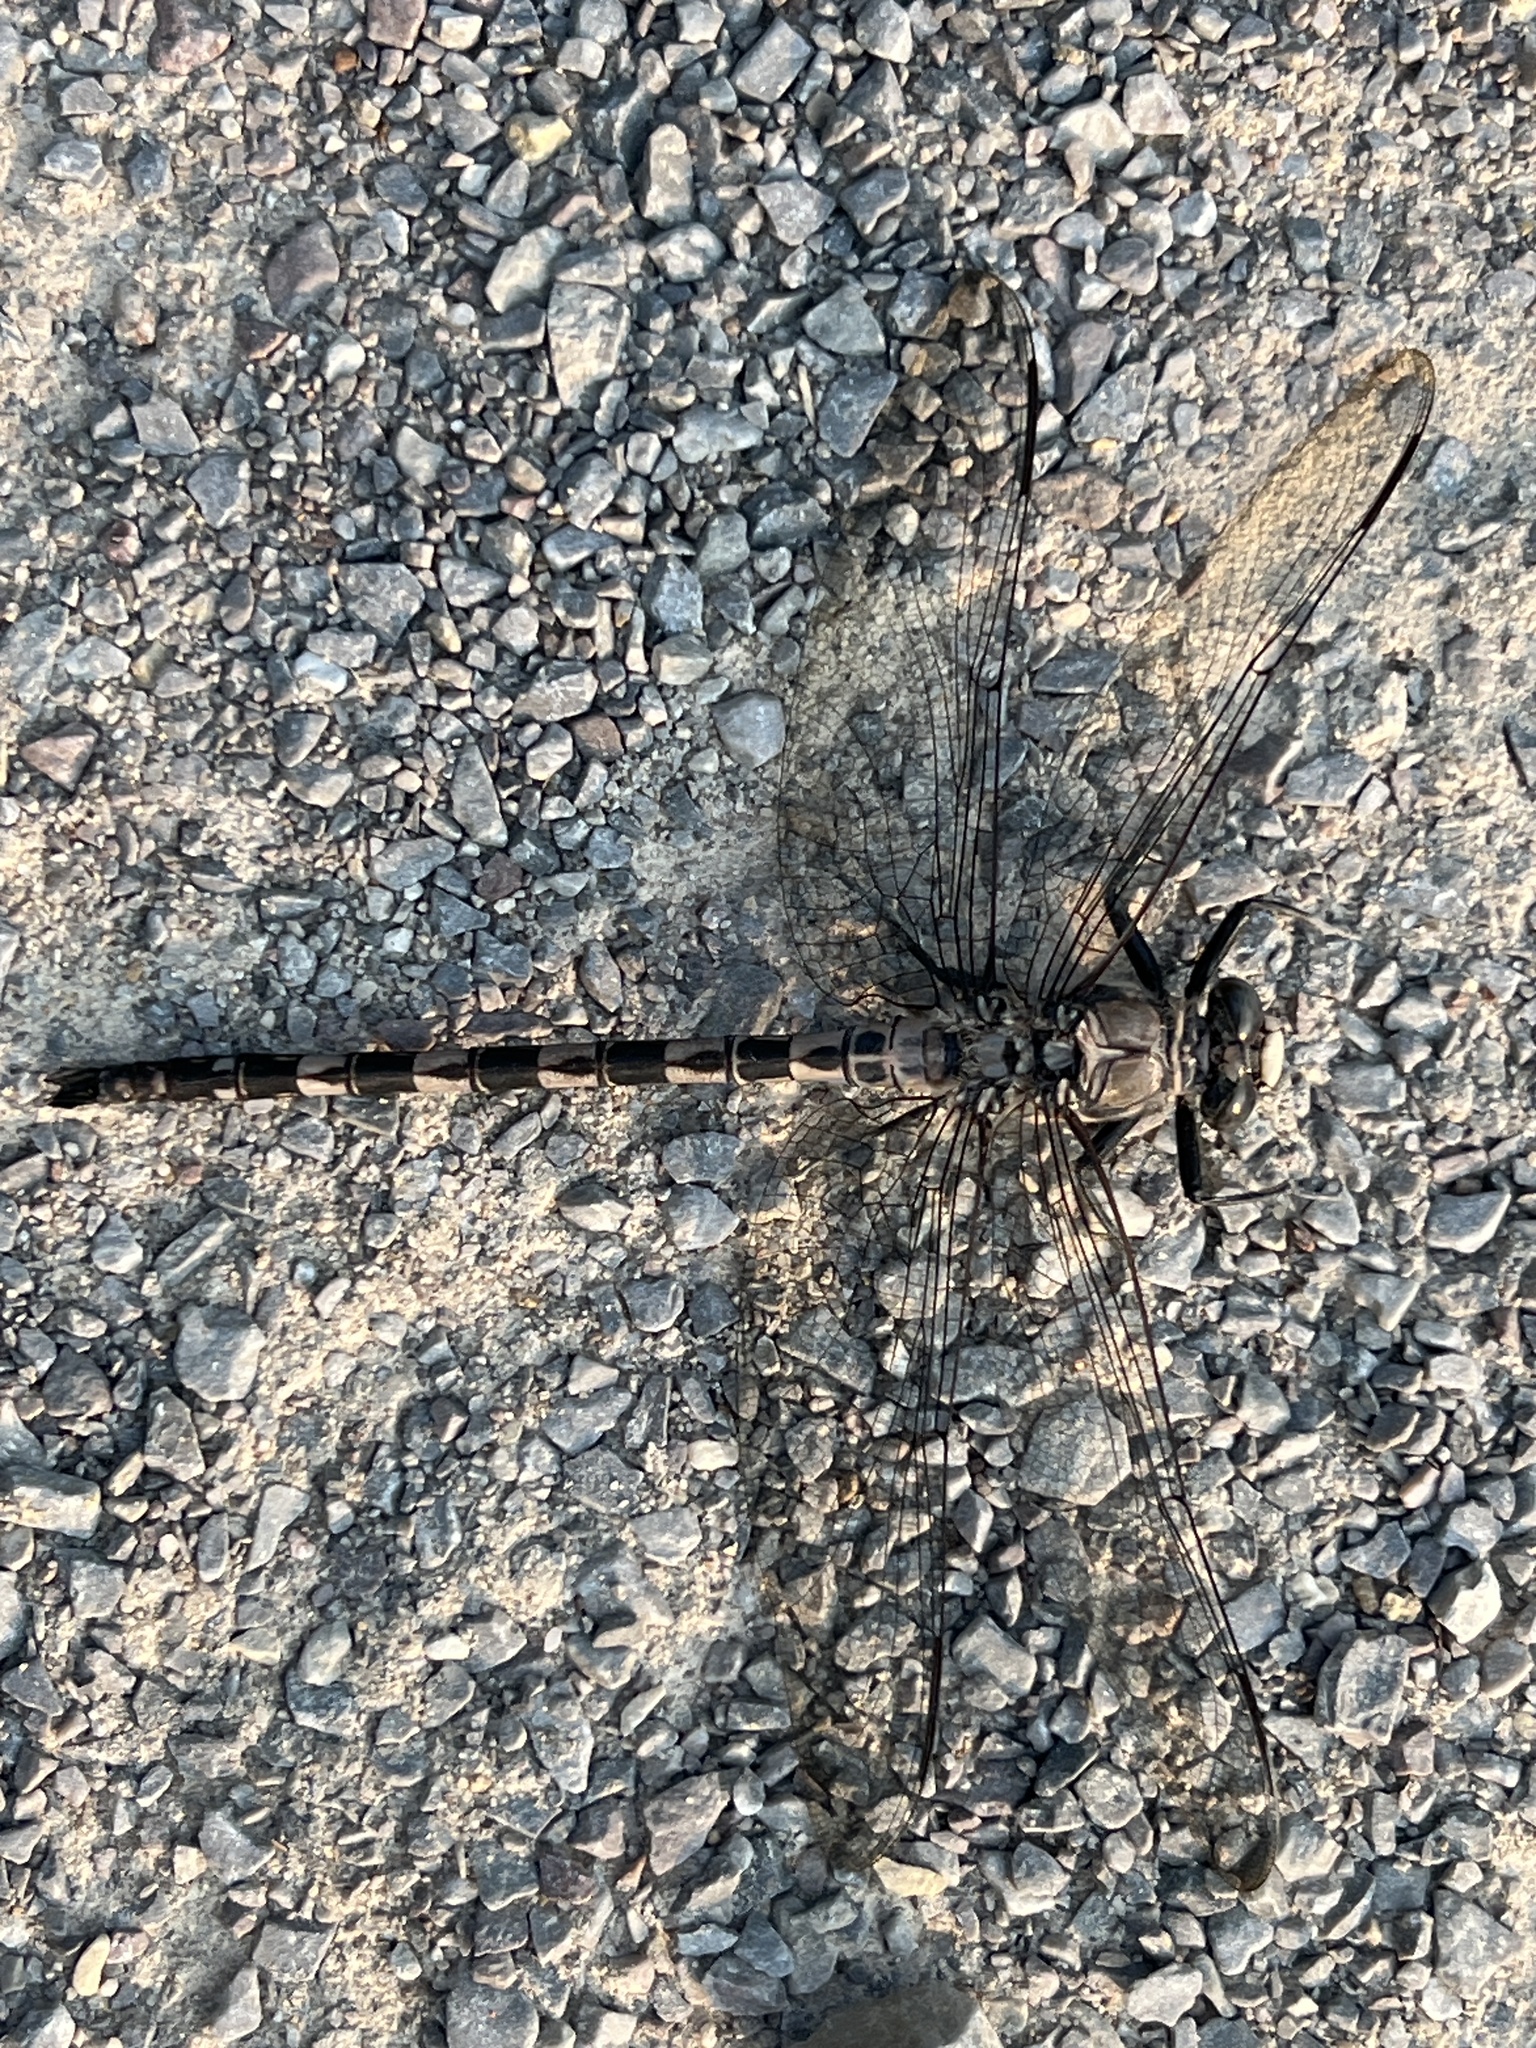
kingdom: Animalia
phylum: Arthropoda
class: Insecta
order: Odonata
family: Petaluridae
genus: Tachopteryx
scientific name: Tachopteryx thoreyi
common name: Gray petaltail
